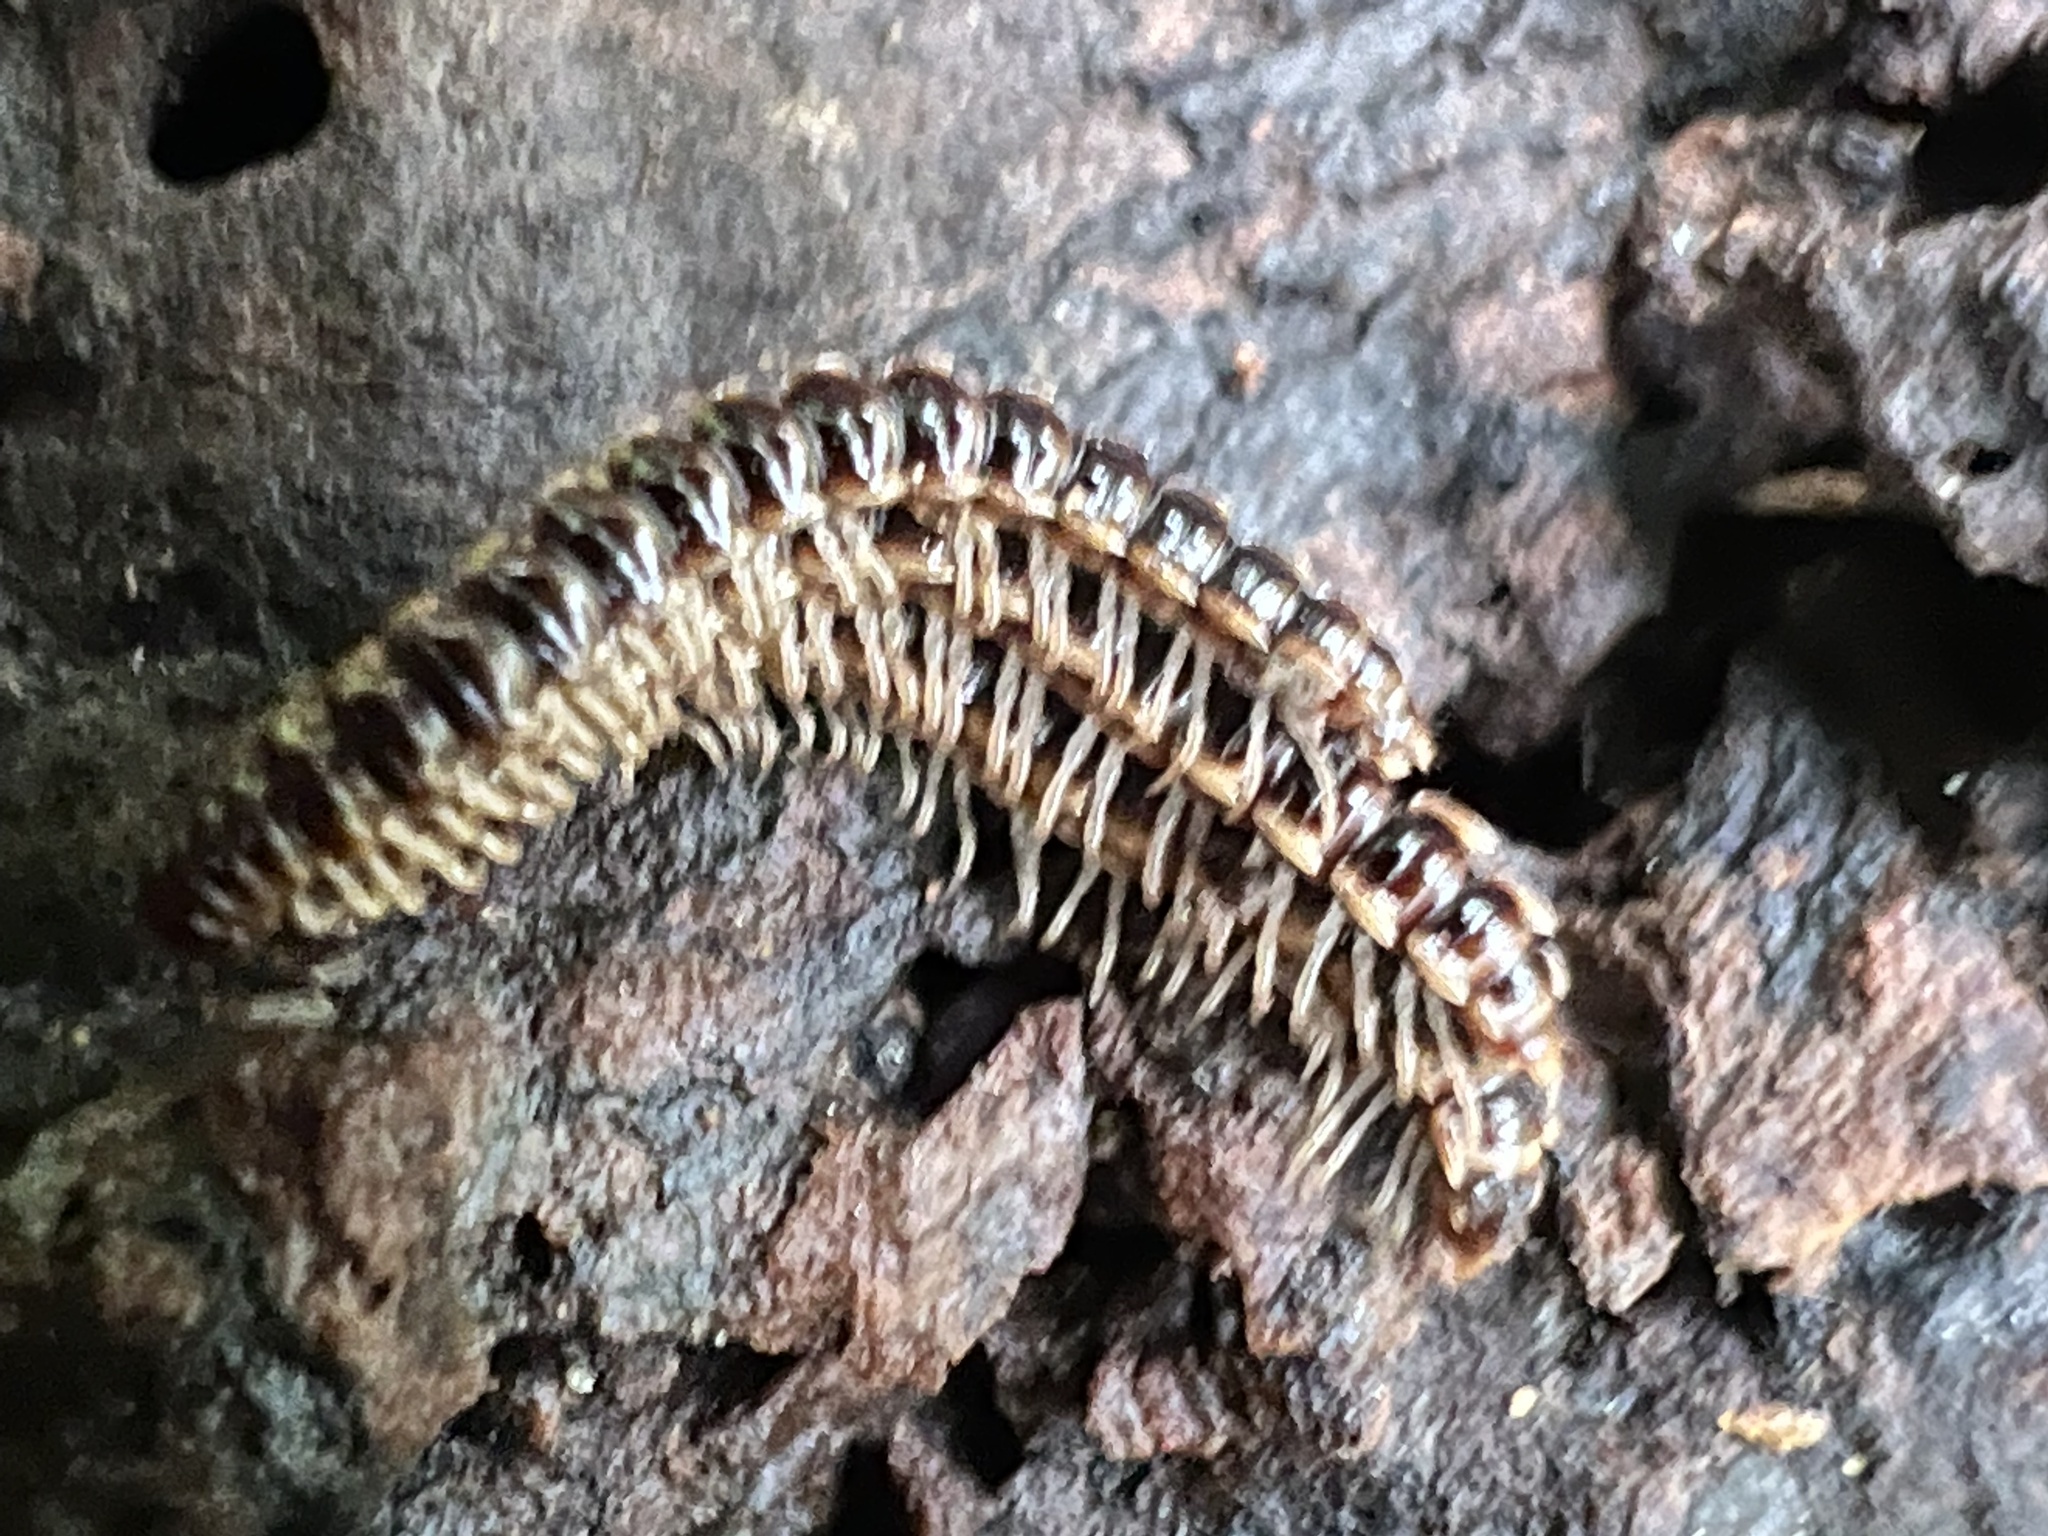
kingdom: Animalia
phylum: Arthropoda
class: Diplopoda
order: Polydesmida
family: Paradoxosomatidae
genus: Oxidus
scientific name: Oxidus gracilis
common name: Greenhouse millipede
